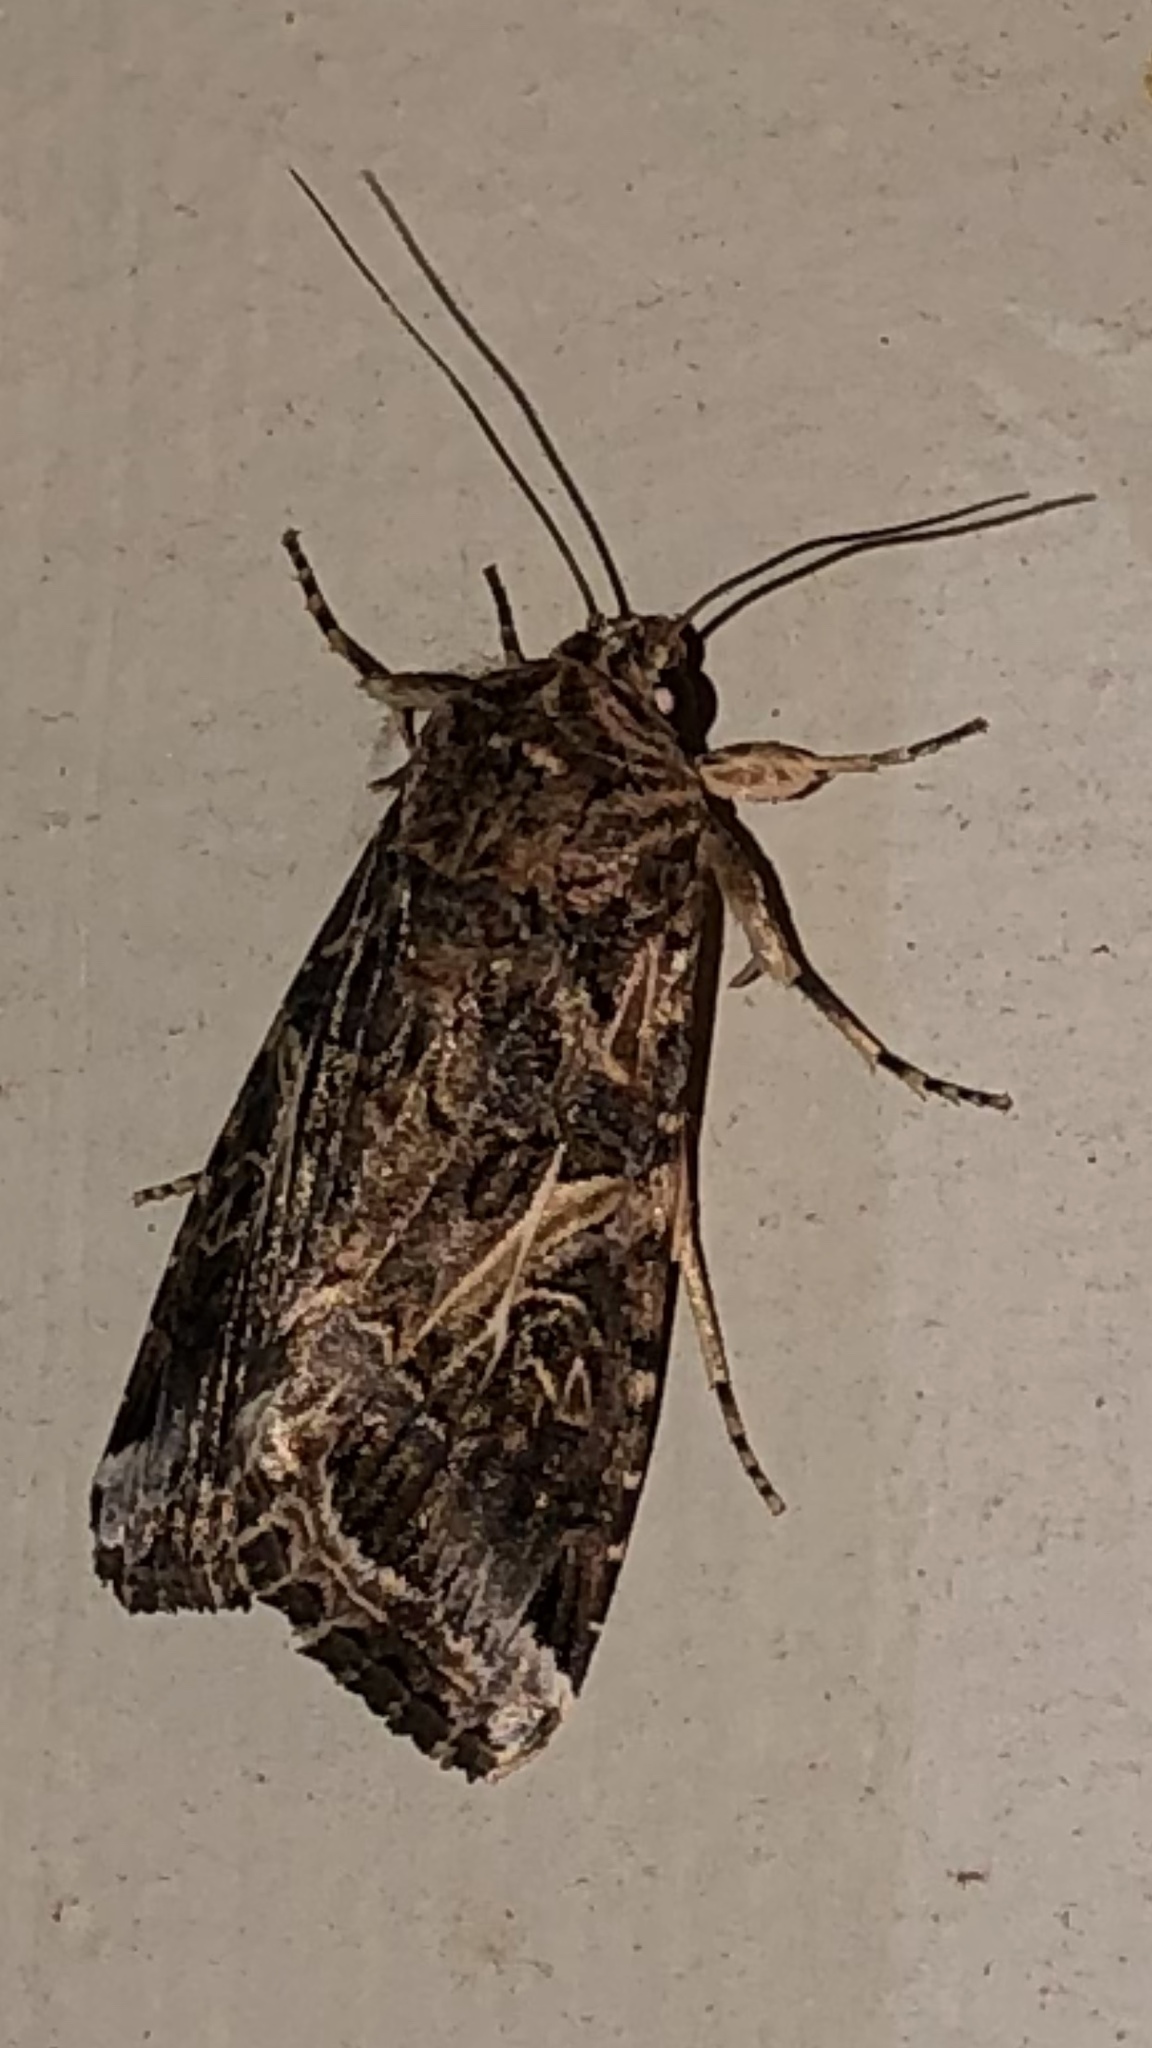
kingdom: Animalia
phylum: Arthropoda
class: Insecta
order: Lepidoptera
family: Noctuidae
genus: Spodoptera
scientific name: Spodoptera ornithogalli
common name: Yellow-striped armyworm
